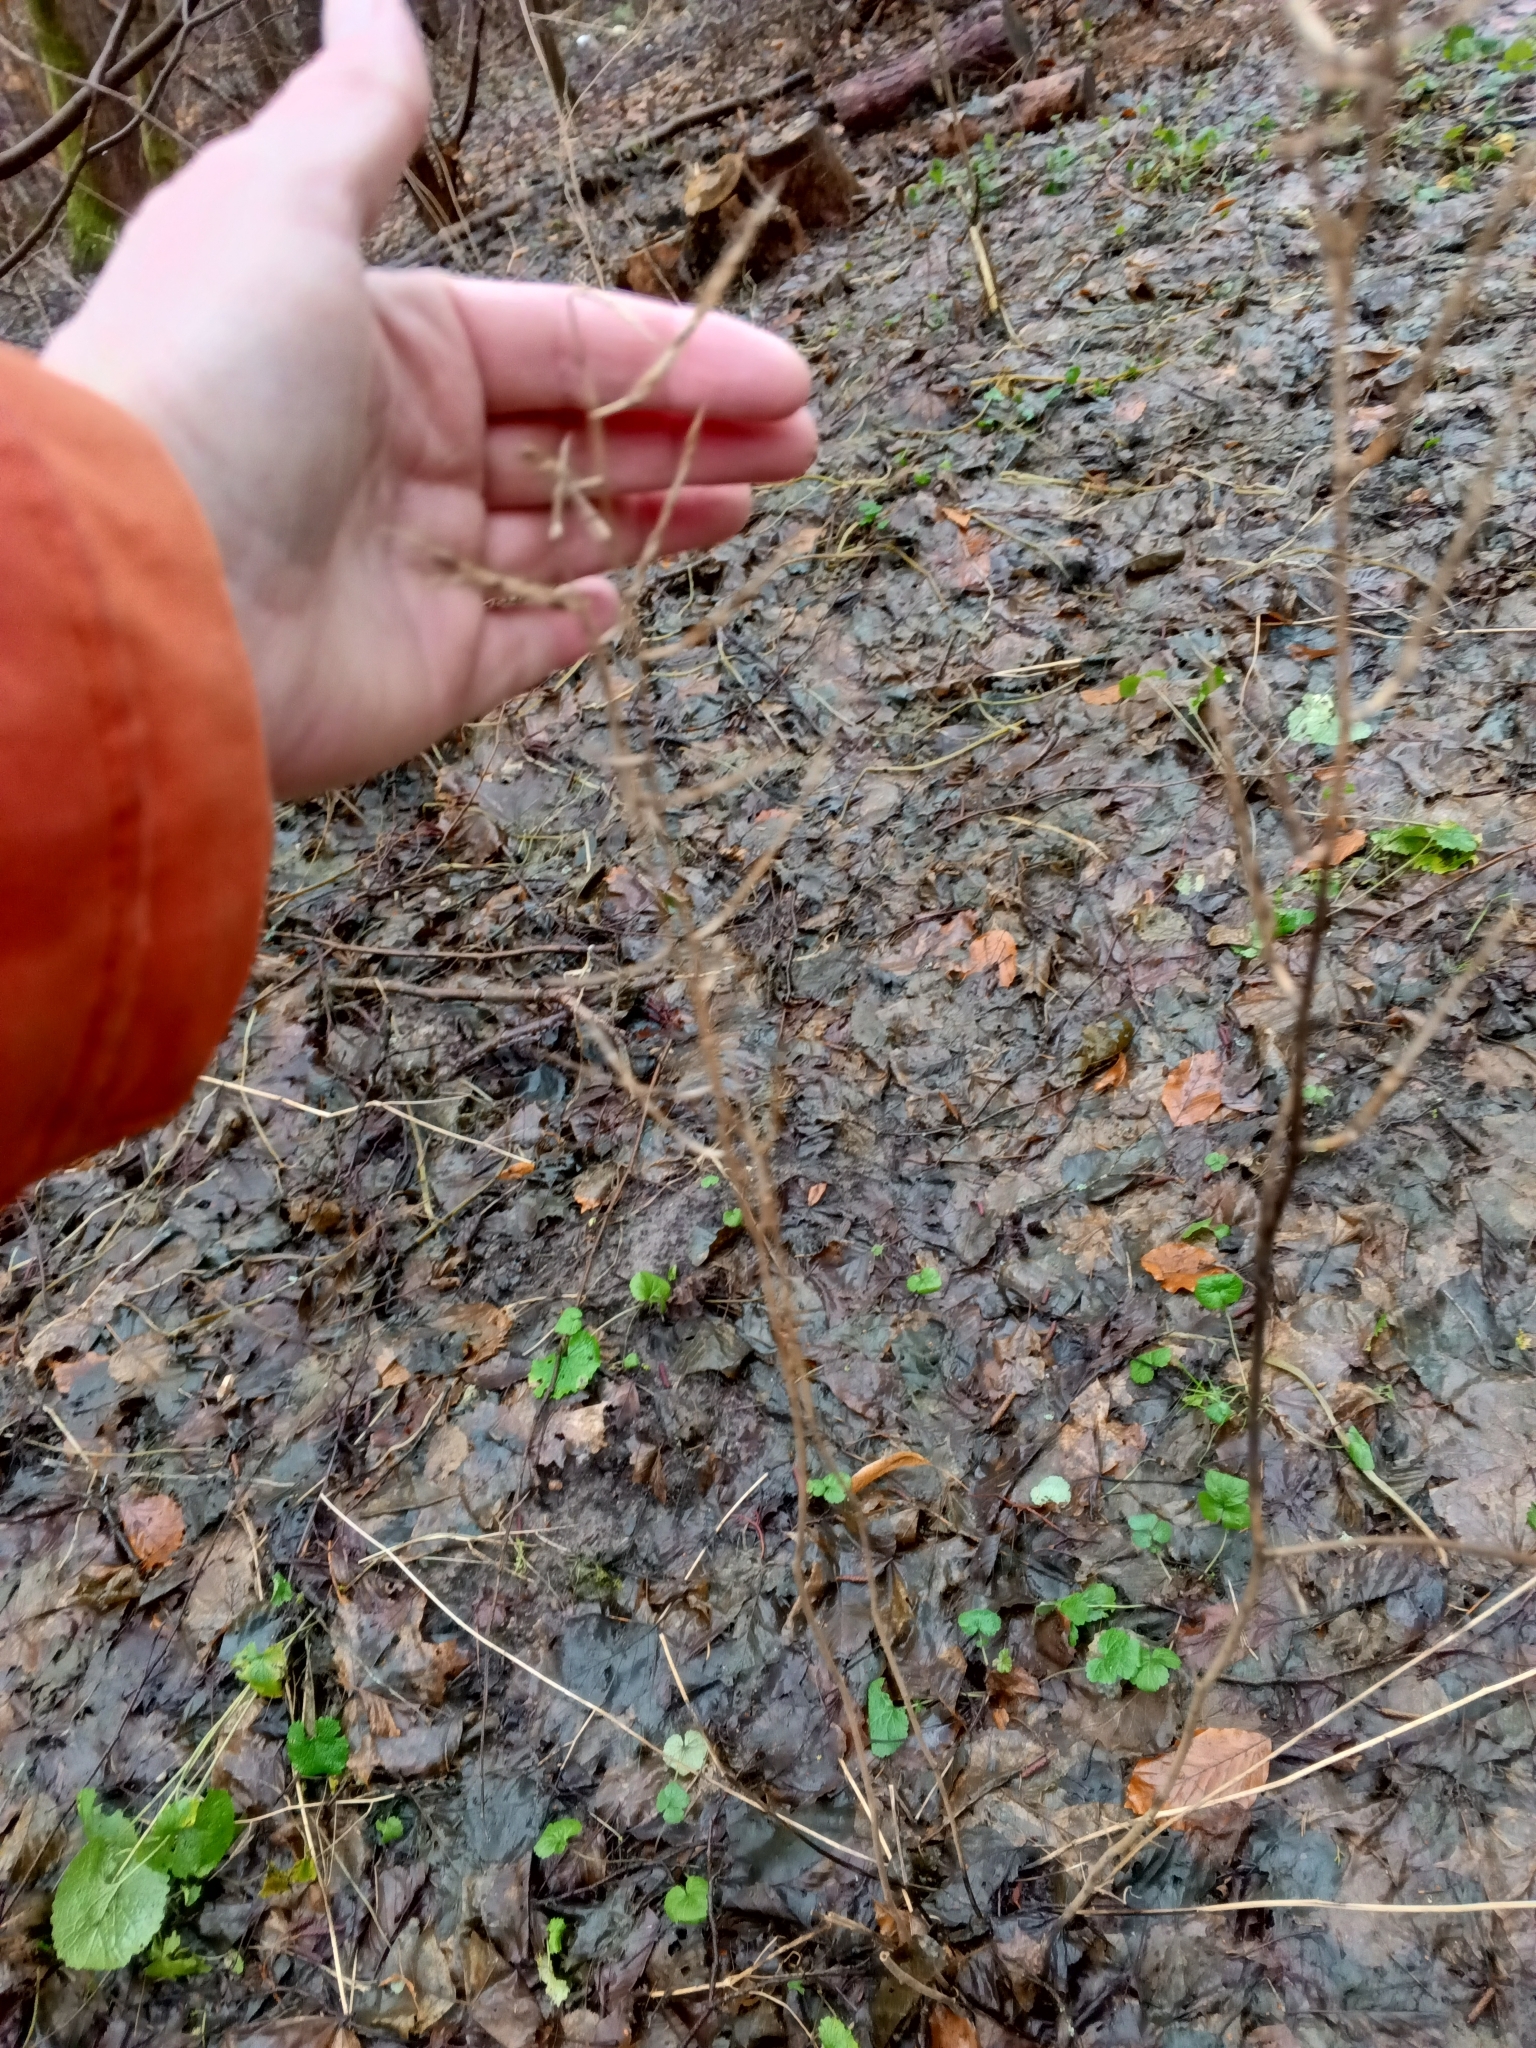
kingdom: Plantae
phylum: Tracheophyta
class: Magnoliopsida
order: Brassicales
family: Brassicaceae
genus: Alliaria
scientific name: Alliaria petiolata
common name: Garlic mustard
